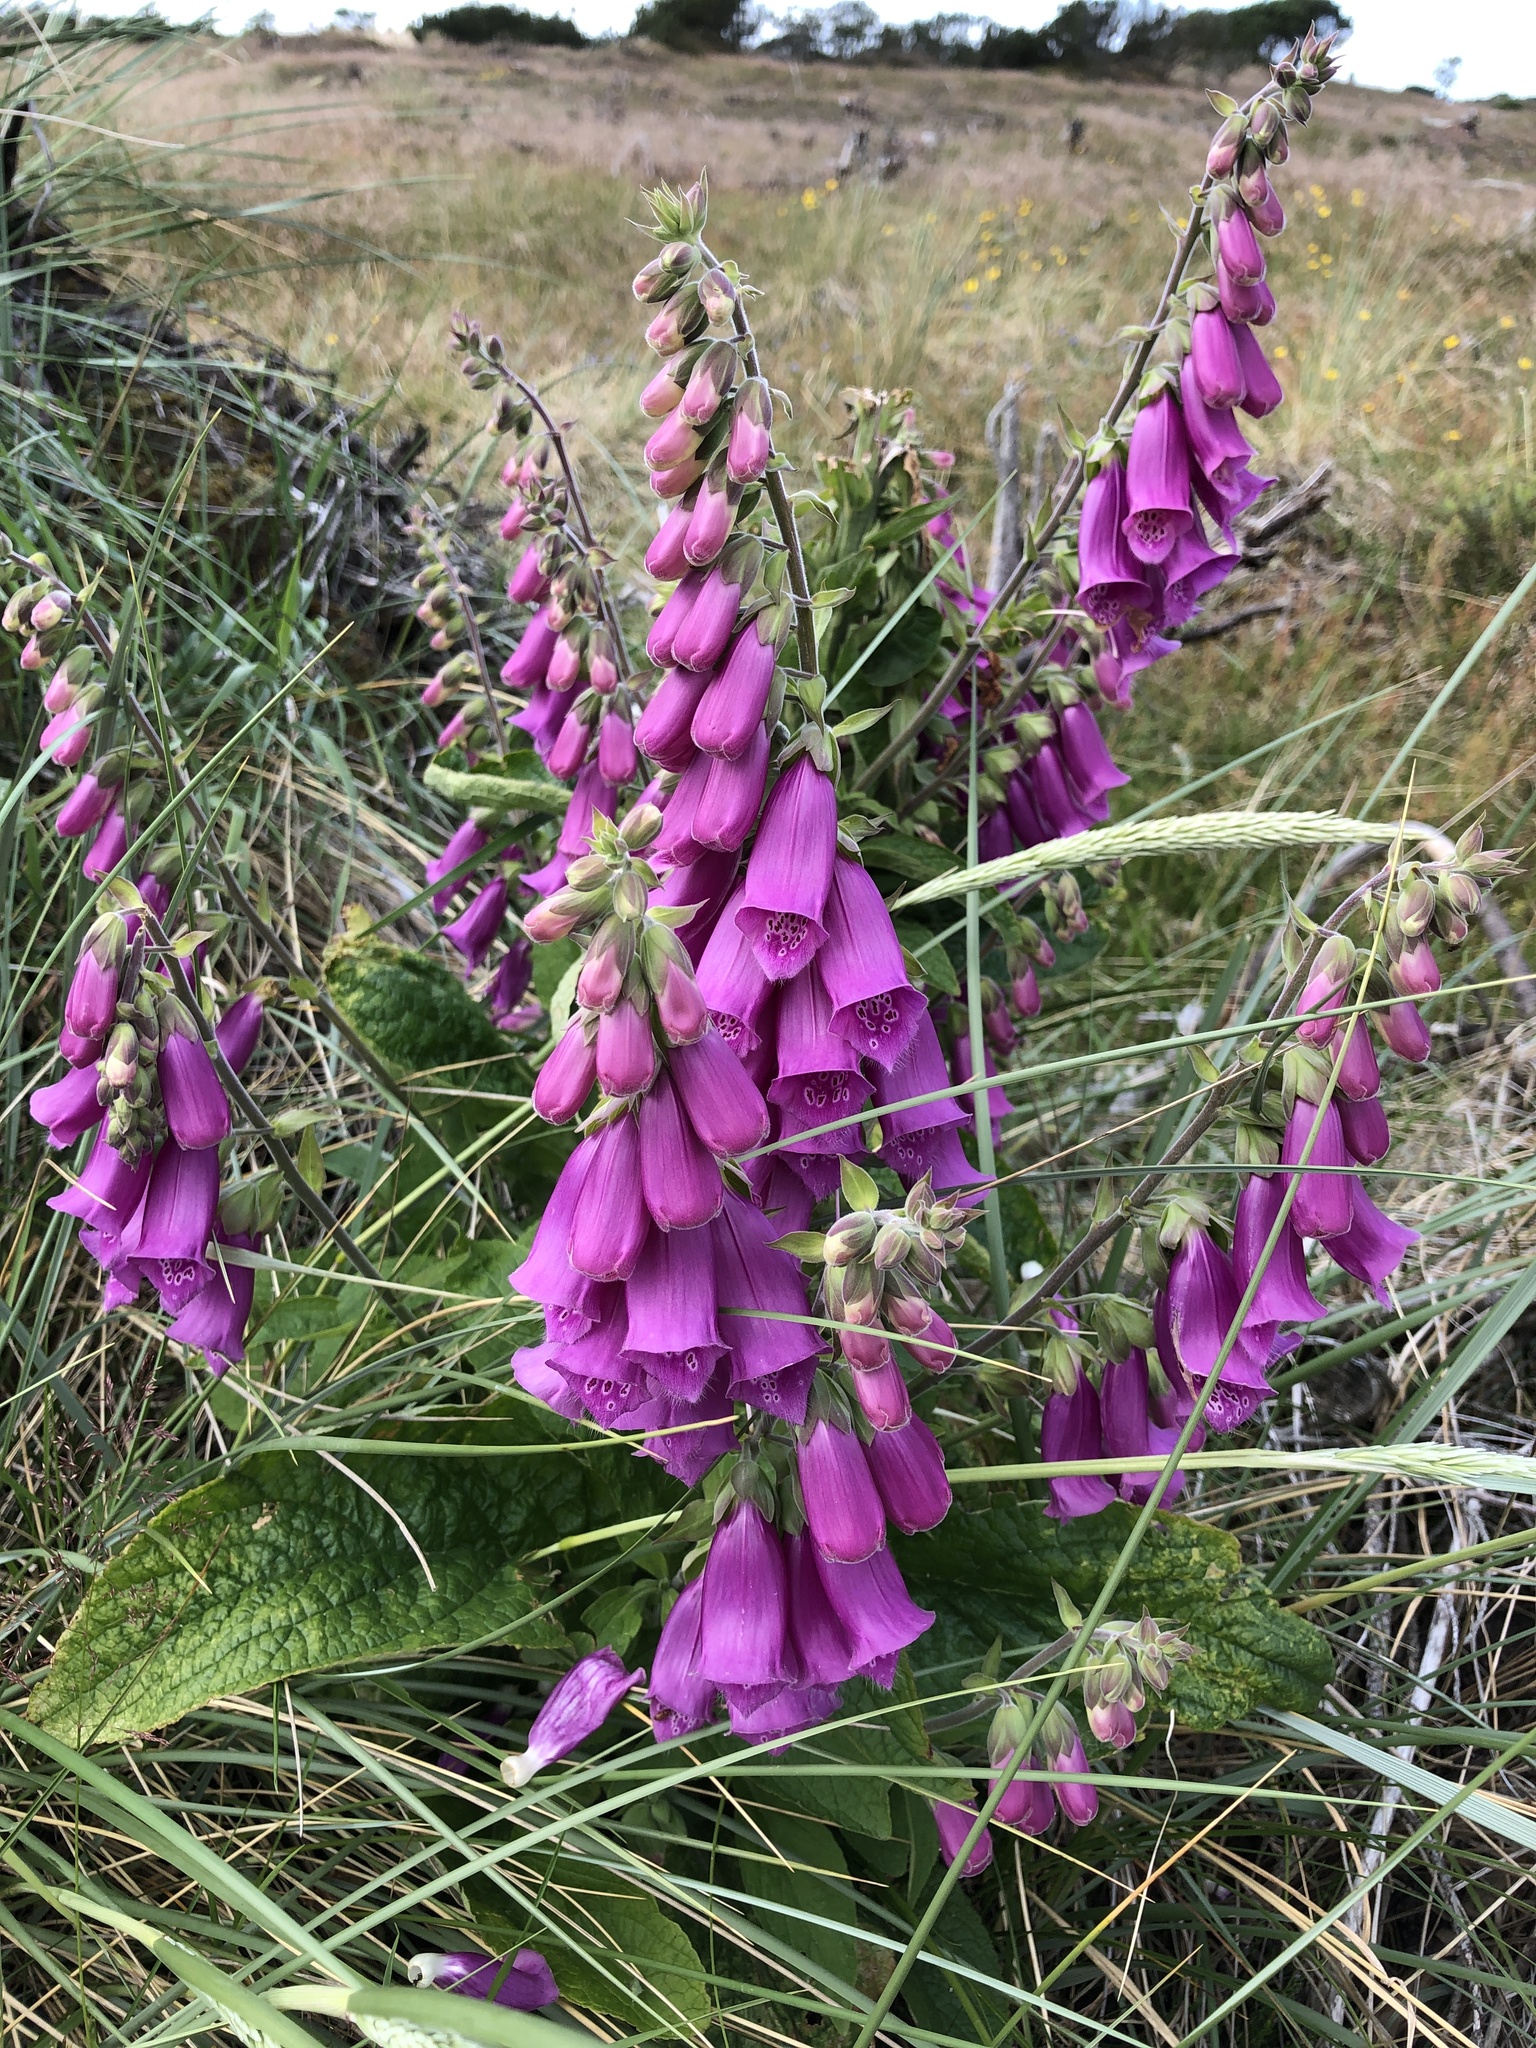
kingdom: Plantae
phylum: Tracheophyta
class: Magnoliopsida
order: Lamiales
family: Plantaginaceae
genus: Digitalis
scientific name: Digitalis purpurea
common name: Foxglove
